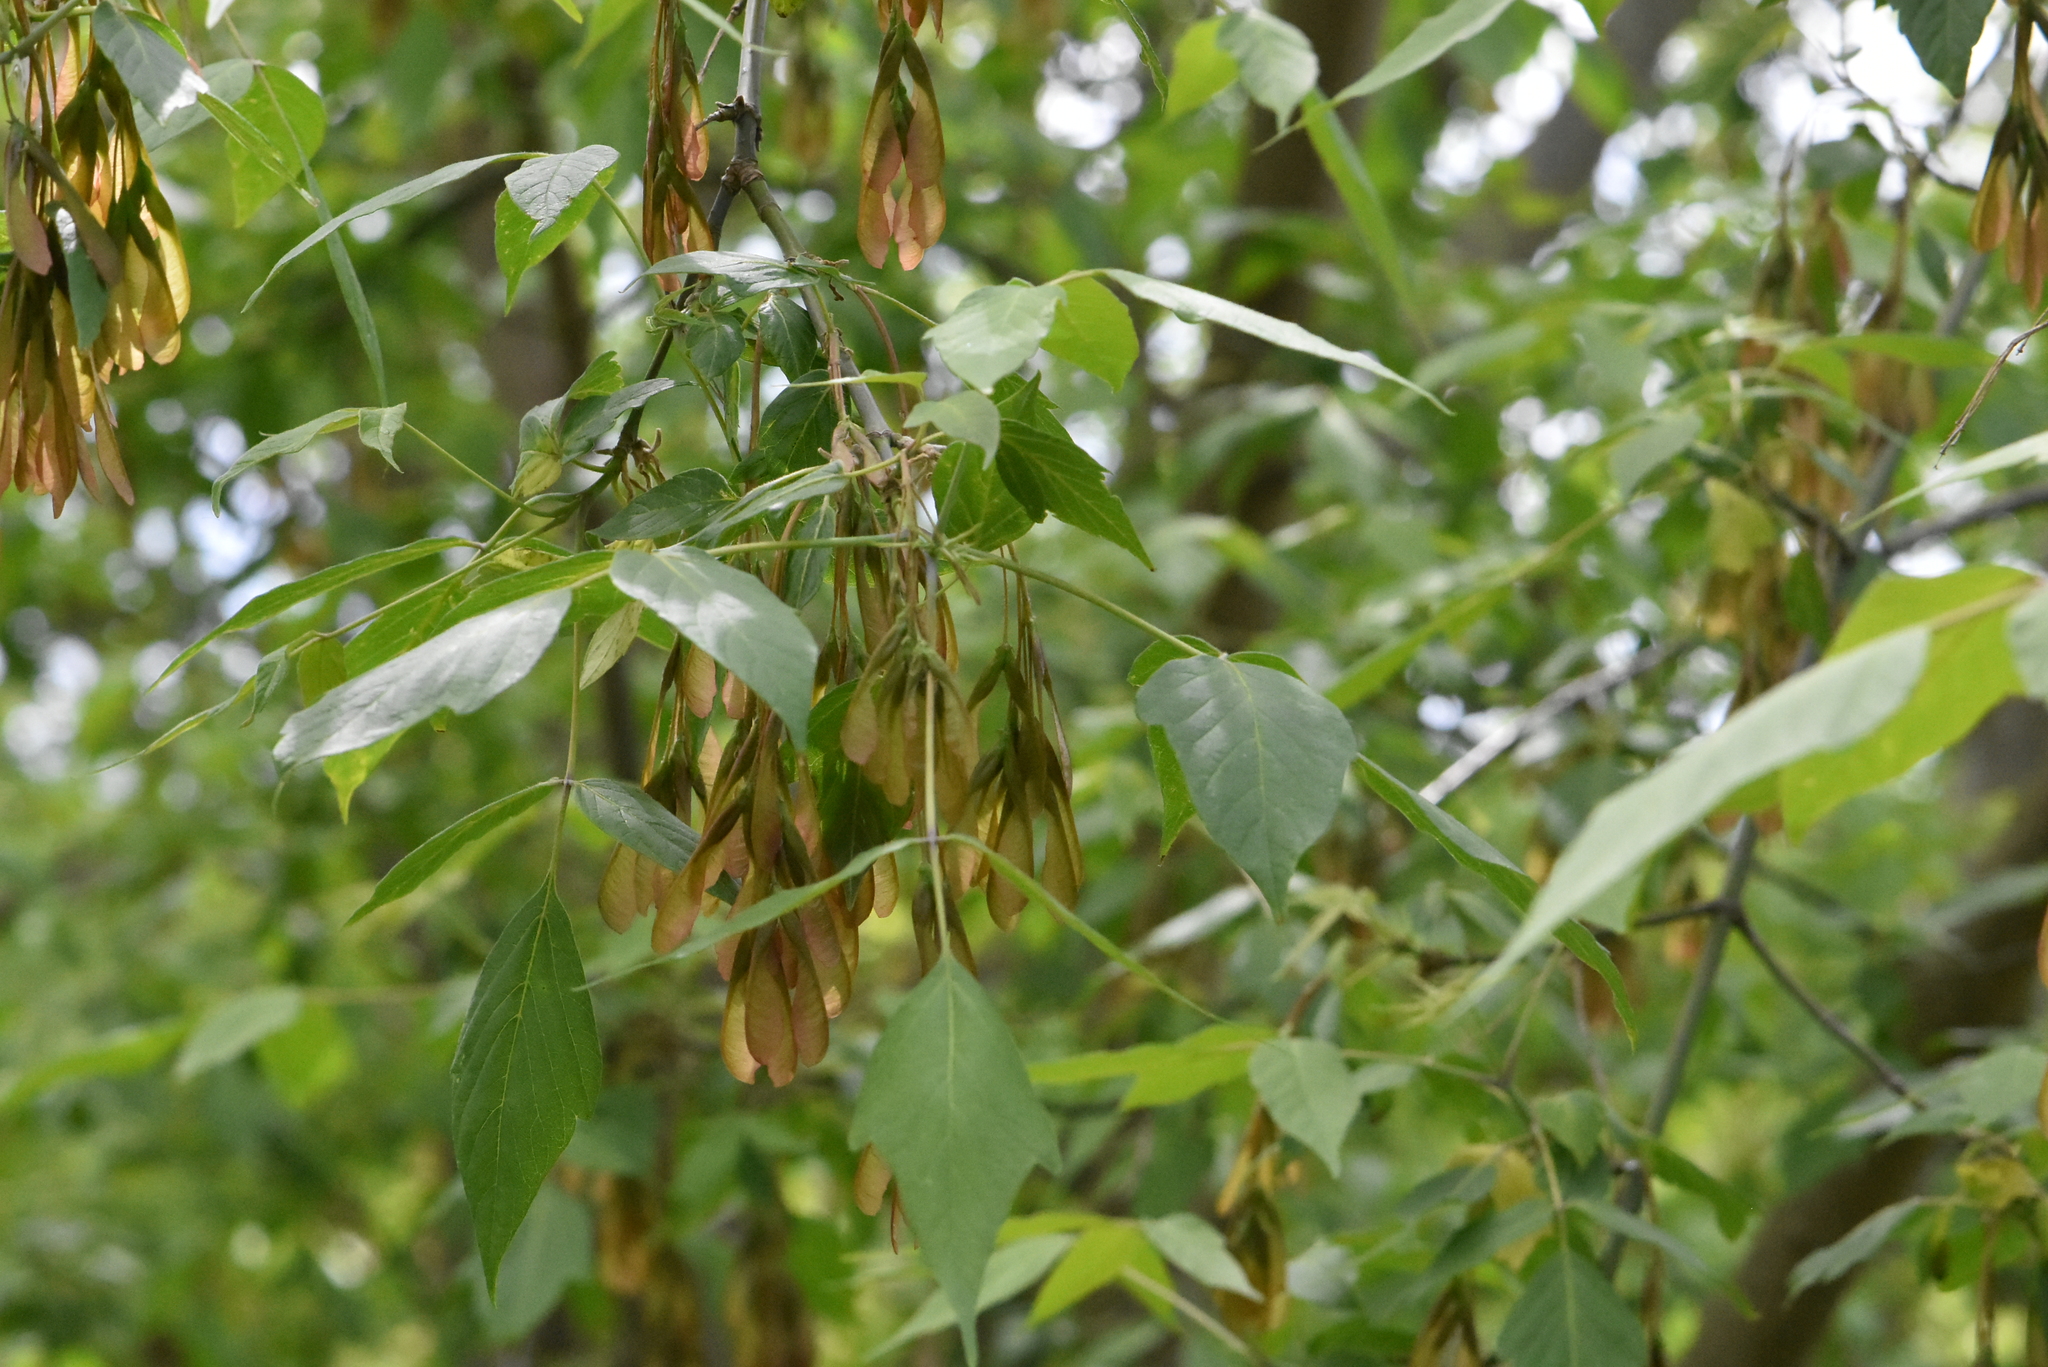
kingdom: Plantae
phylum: Tracheophyta
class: Magnoliopsida
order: Sapindales
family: Sapindaceae
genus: Acer
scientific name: Acer negundo
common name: Ashleaf maple
